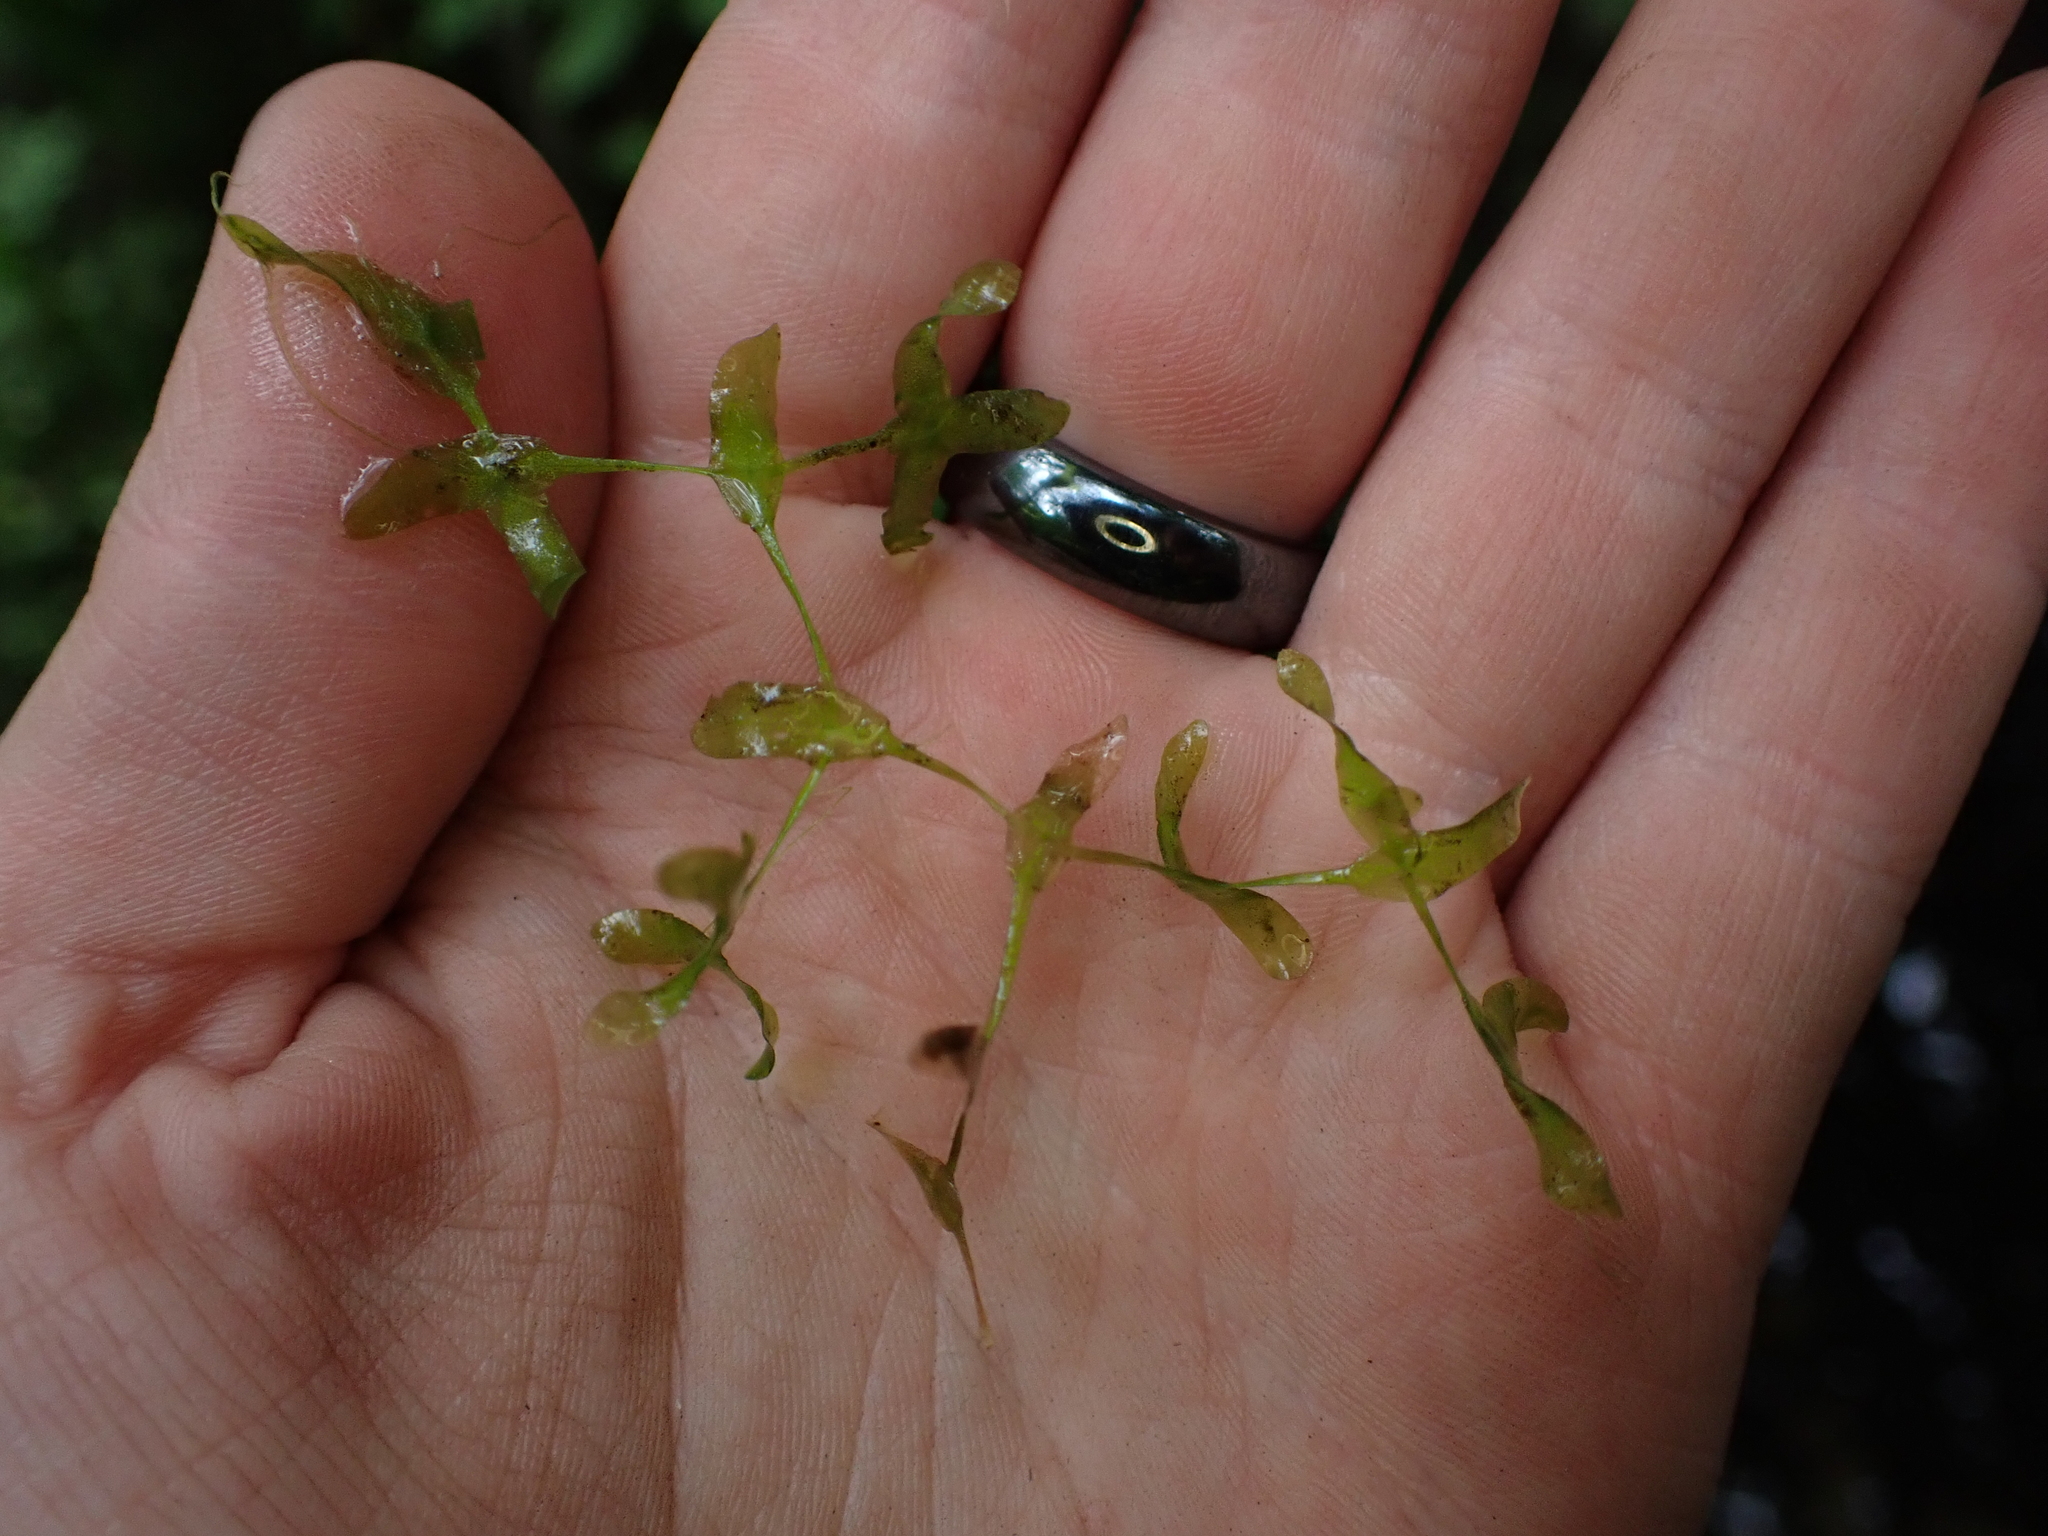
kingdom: Plantae
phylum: Tracheophyta
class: Liliopsida
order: Alismatales
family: Araceae
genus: Lemna
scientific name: Lemna trisulca
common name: Ivy-leaved duckweed
